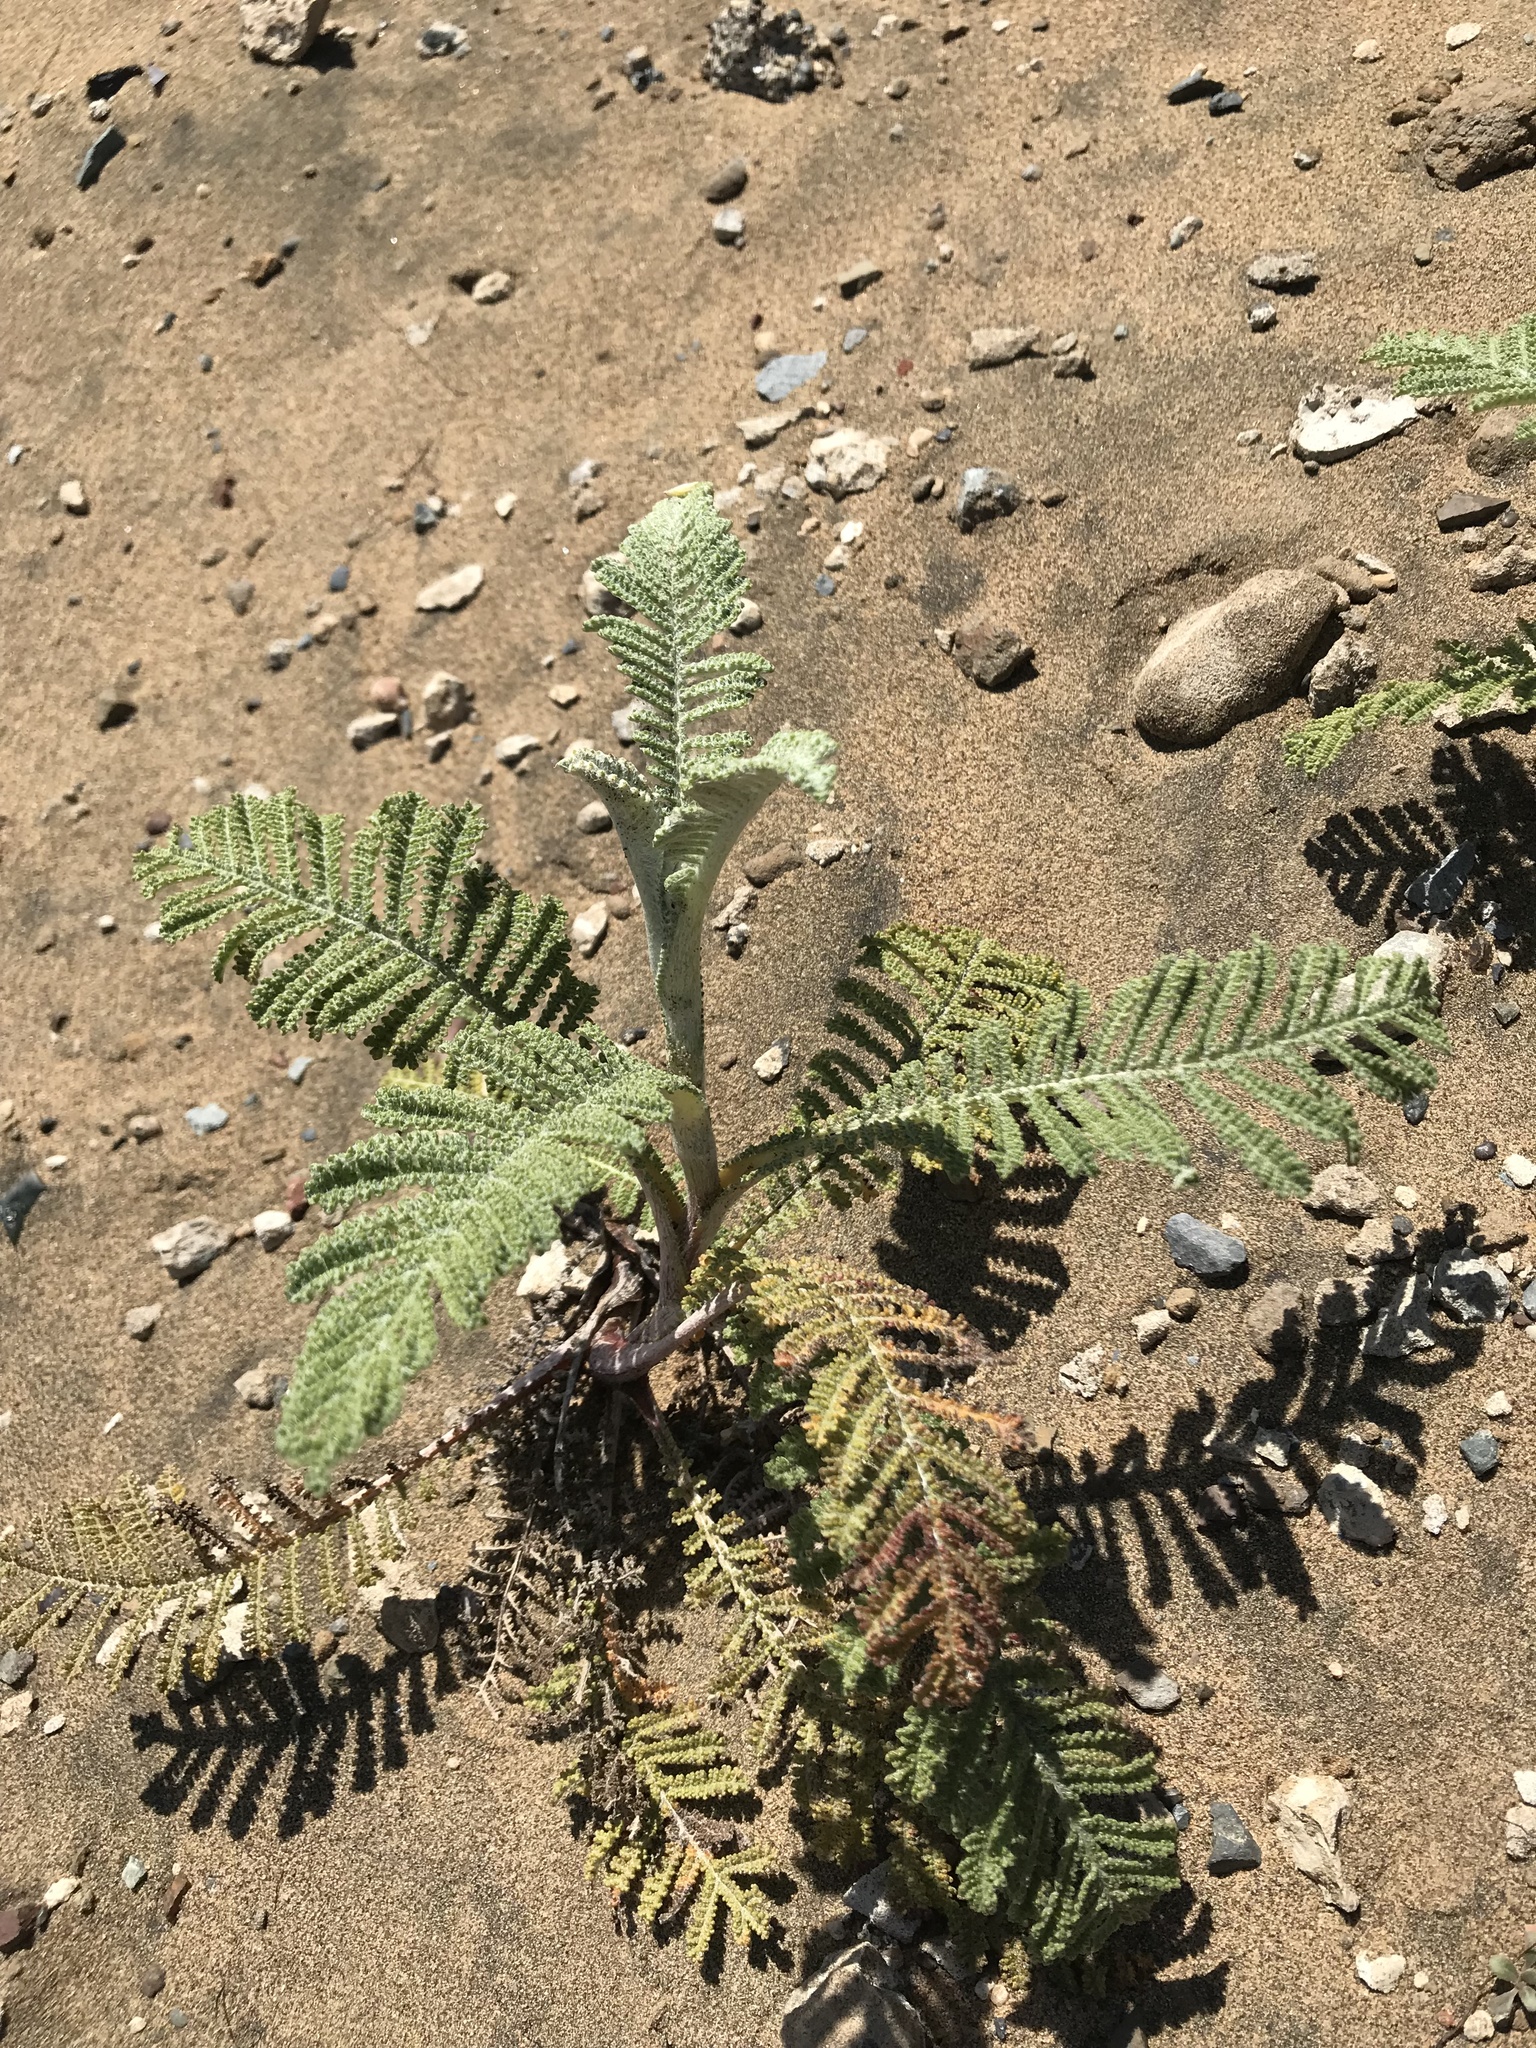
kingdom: Plantae
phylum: Tracheophyta
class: Magnoliopsida
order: Asterales
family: Asteraceae
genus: Tanacetum
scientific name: Tanacetum bipinnatum
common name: Dwarf tansy
